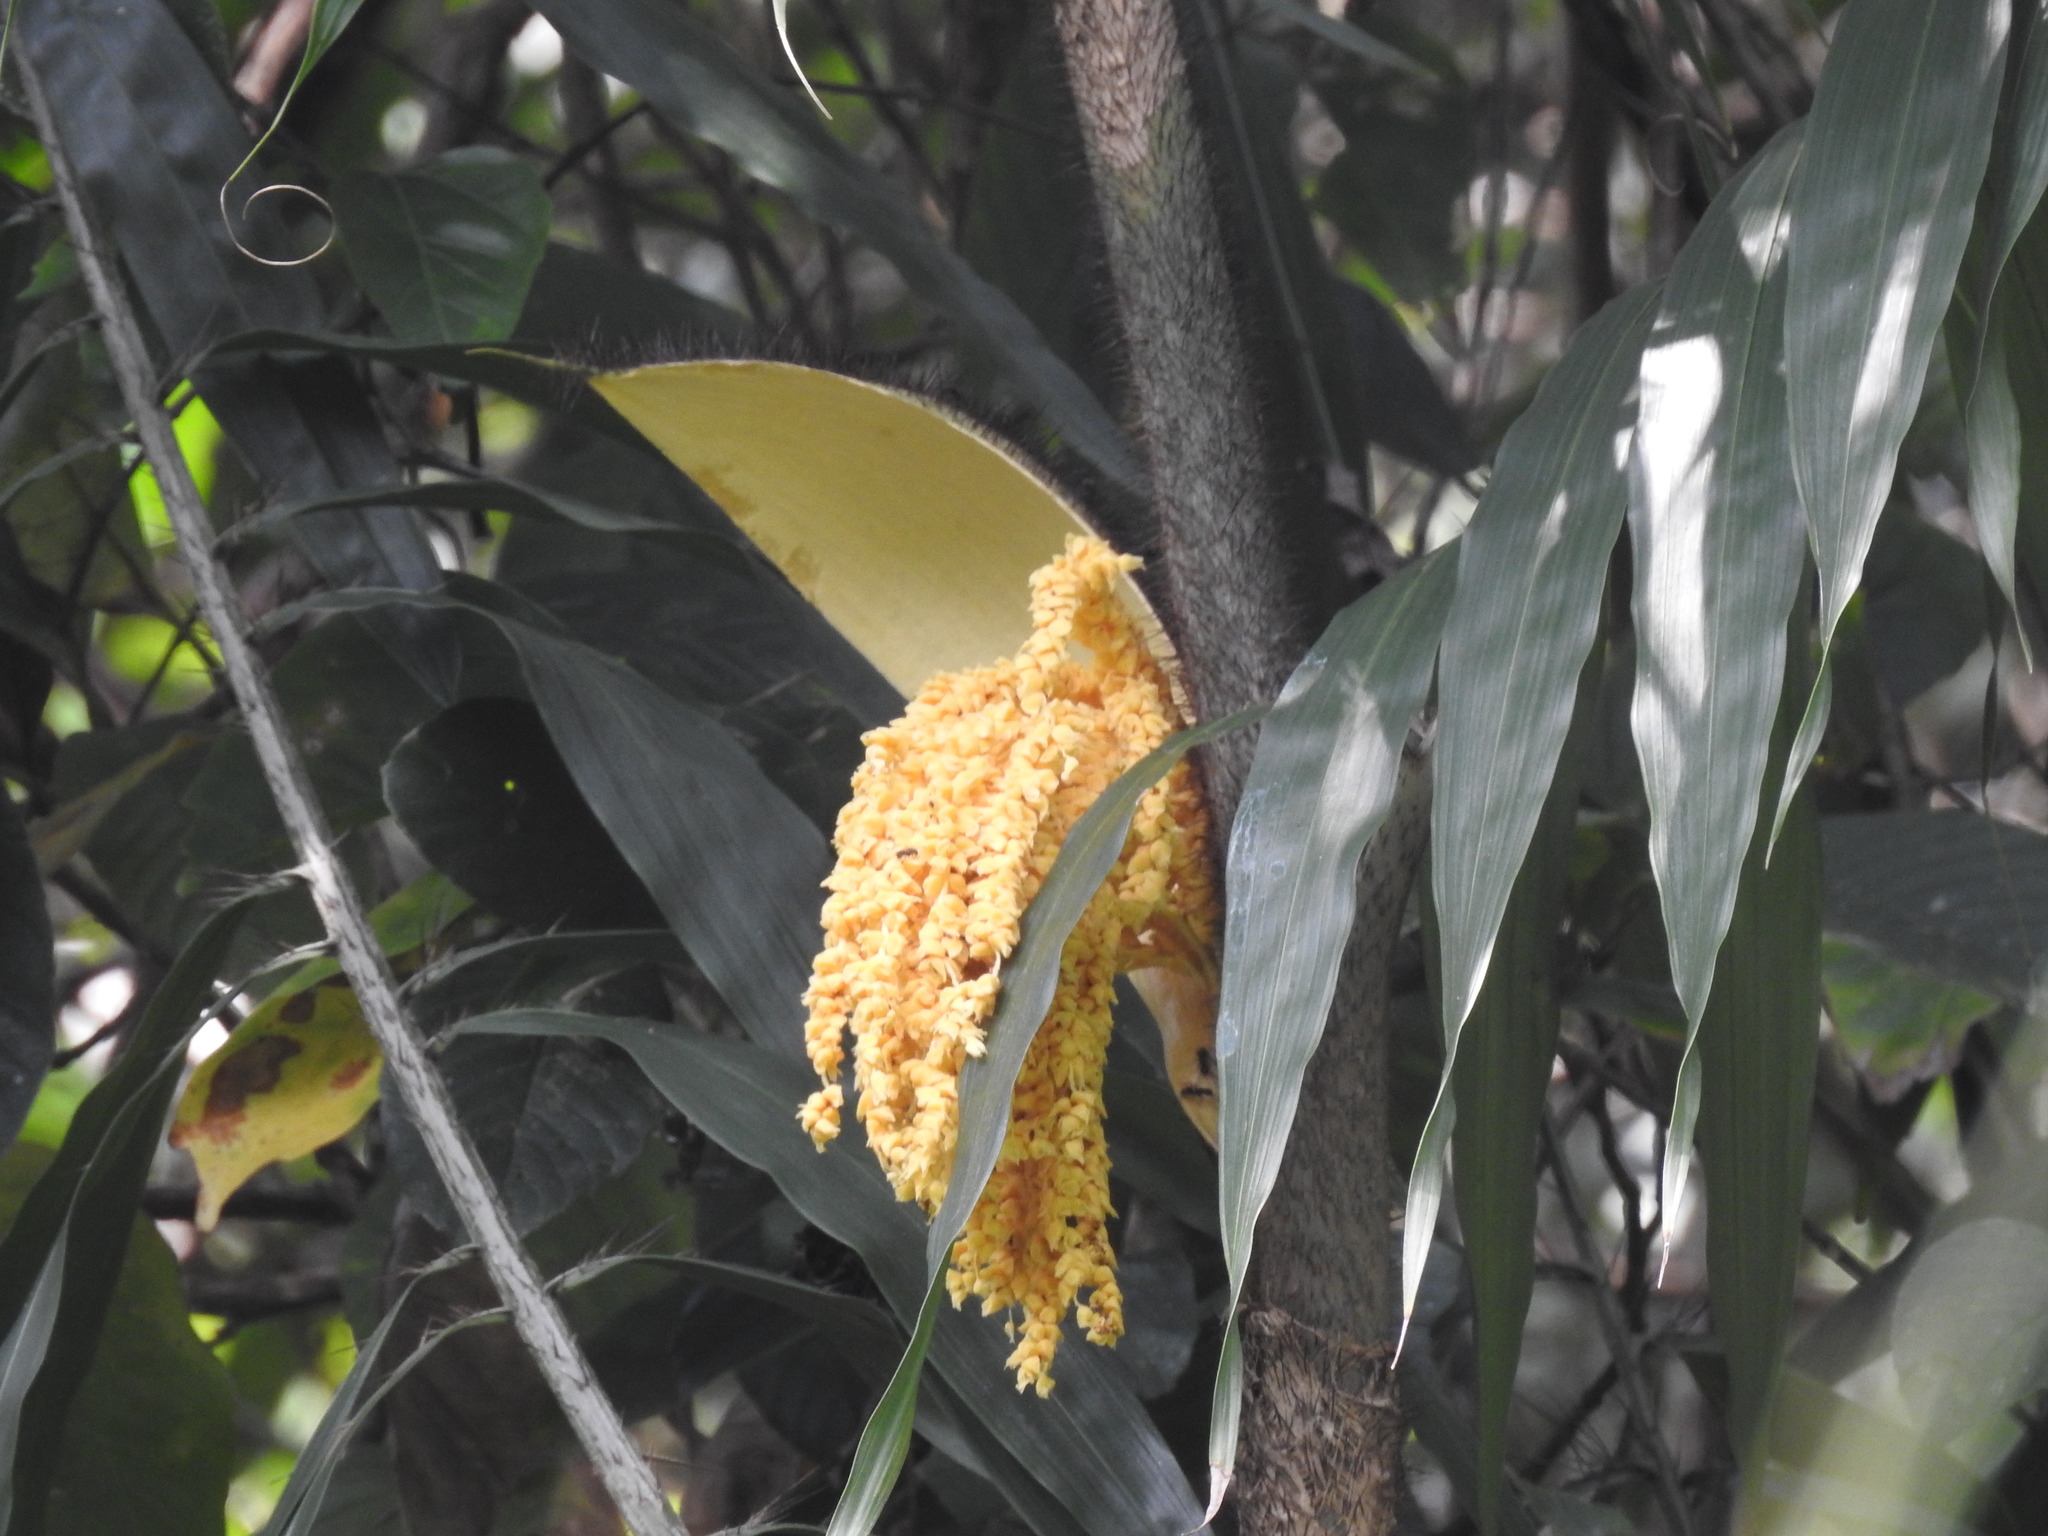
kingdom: Plantae
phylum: Tracheophyta
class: Liliopsida
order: Arecales
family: Arecaceae
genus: Desmoncus
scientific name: Desmoncus orthacanthos
